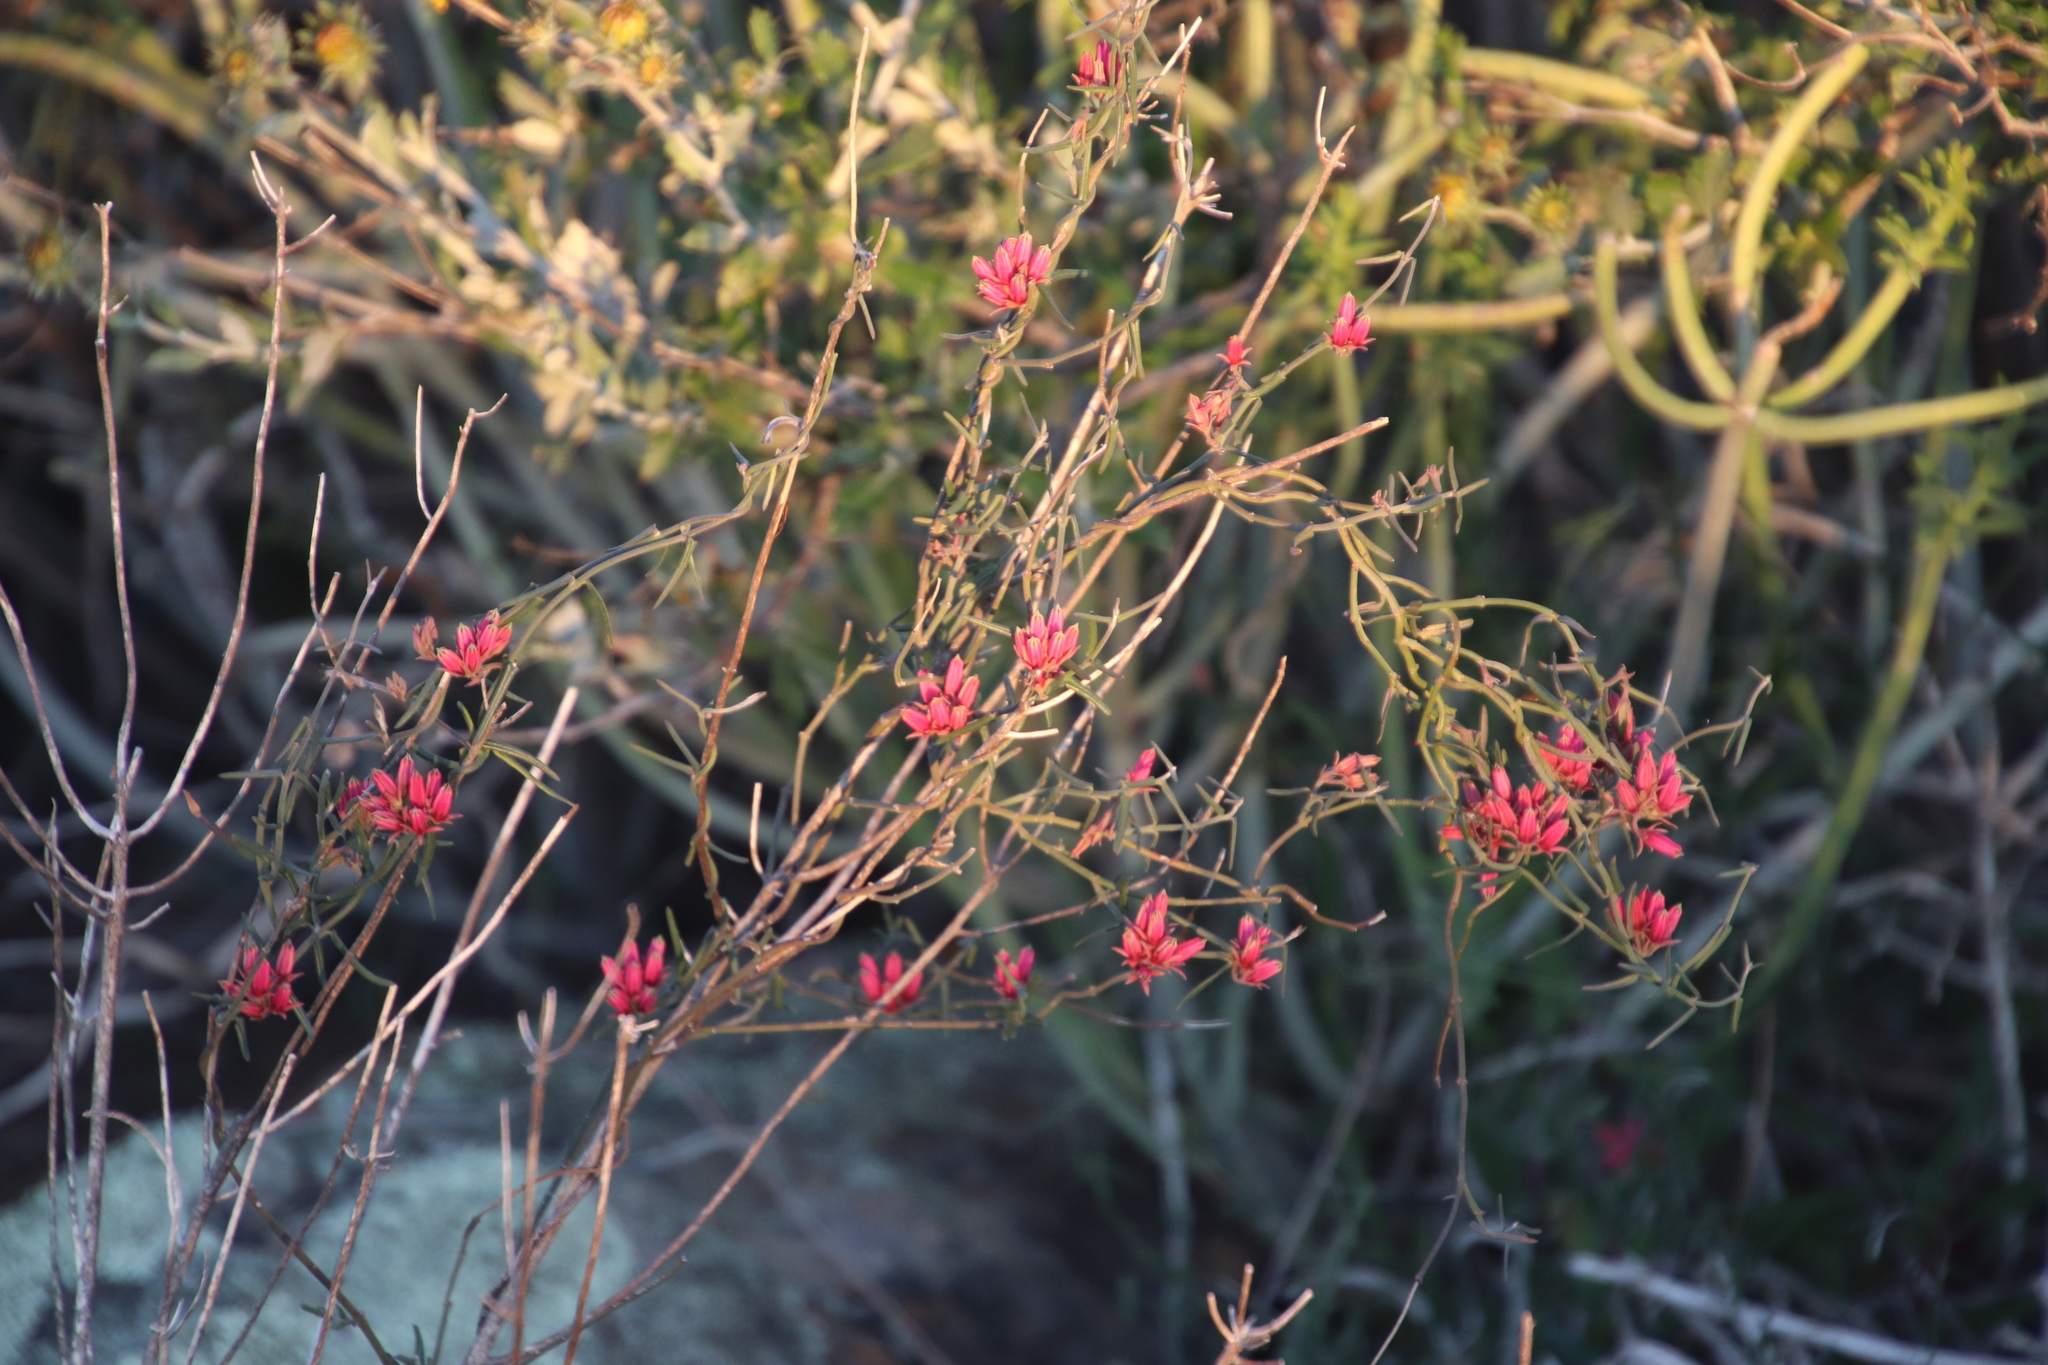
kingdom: Plantae
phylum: Tracheophyta
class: Magnoliopsida
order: Gentianales
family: Apocynaceae
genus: Microloma
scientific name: Microloma sagittatum
